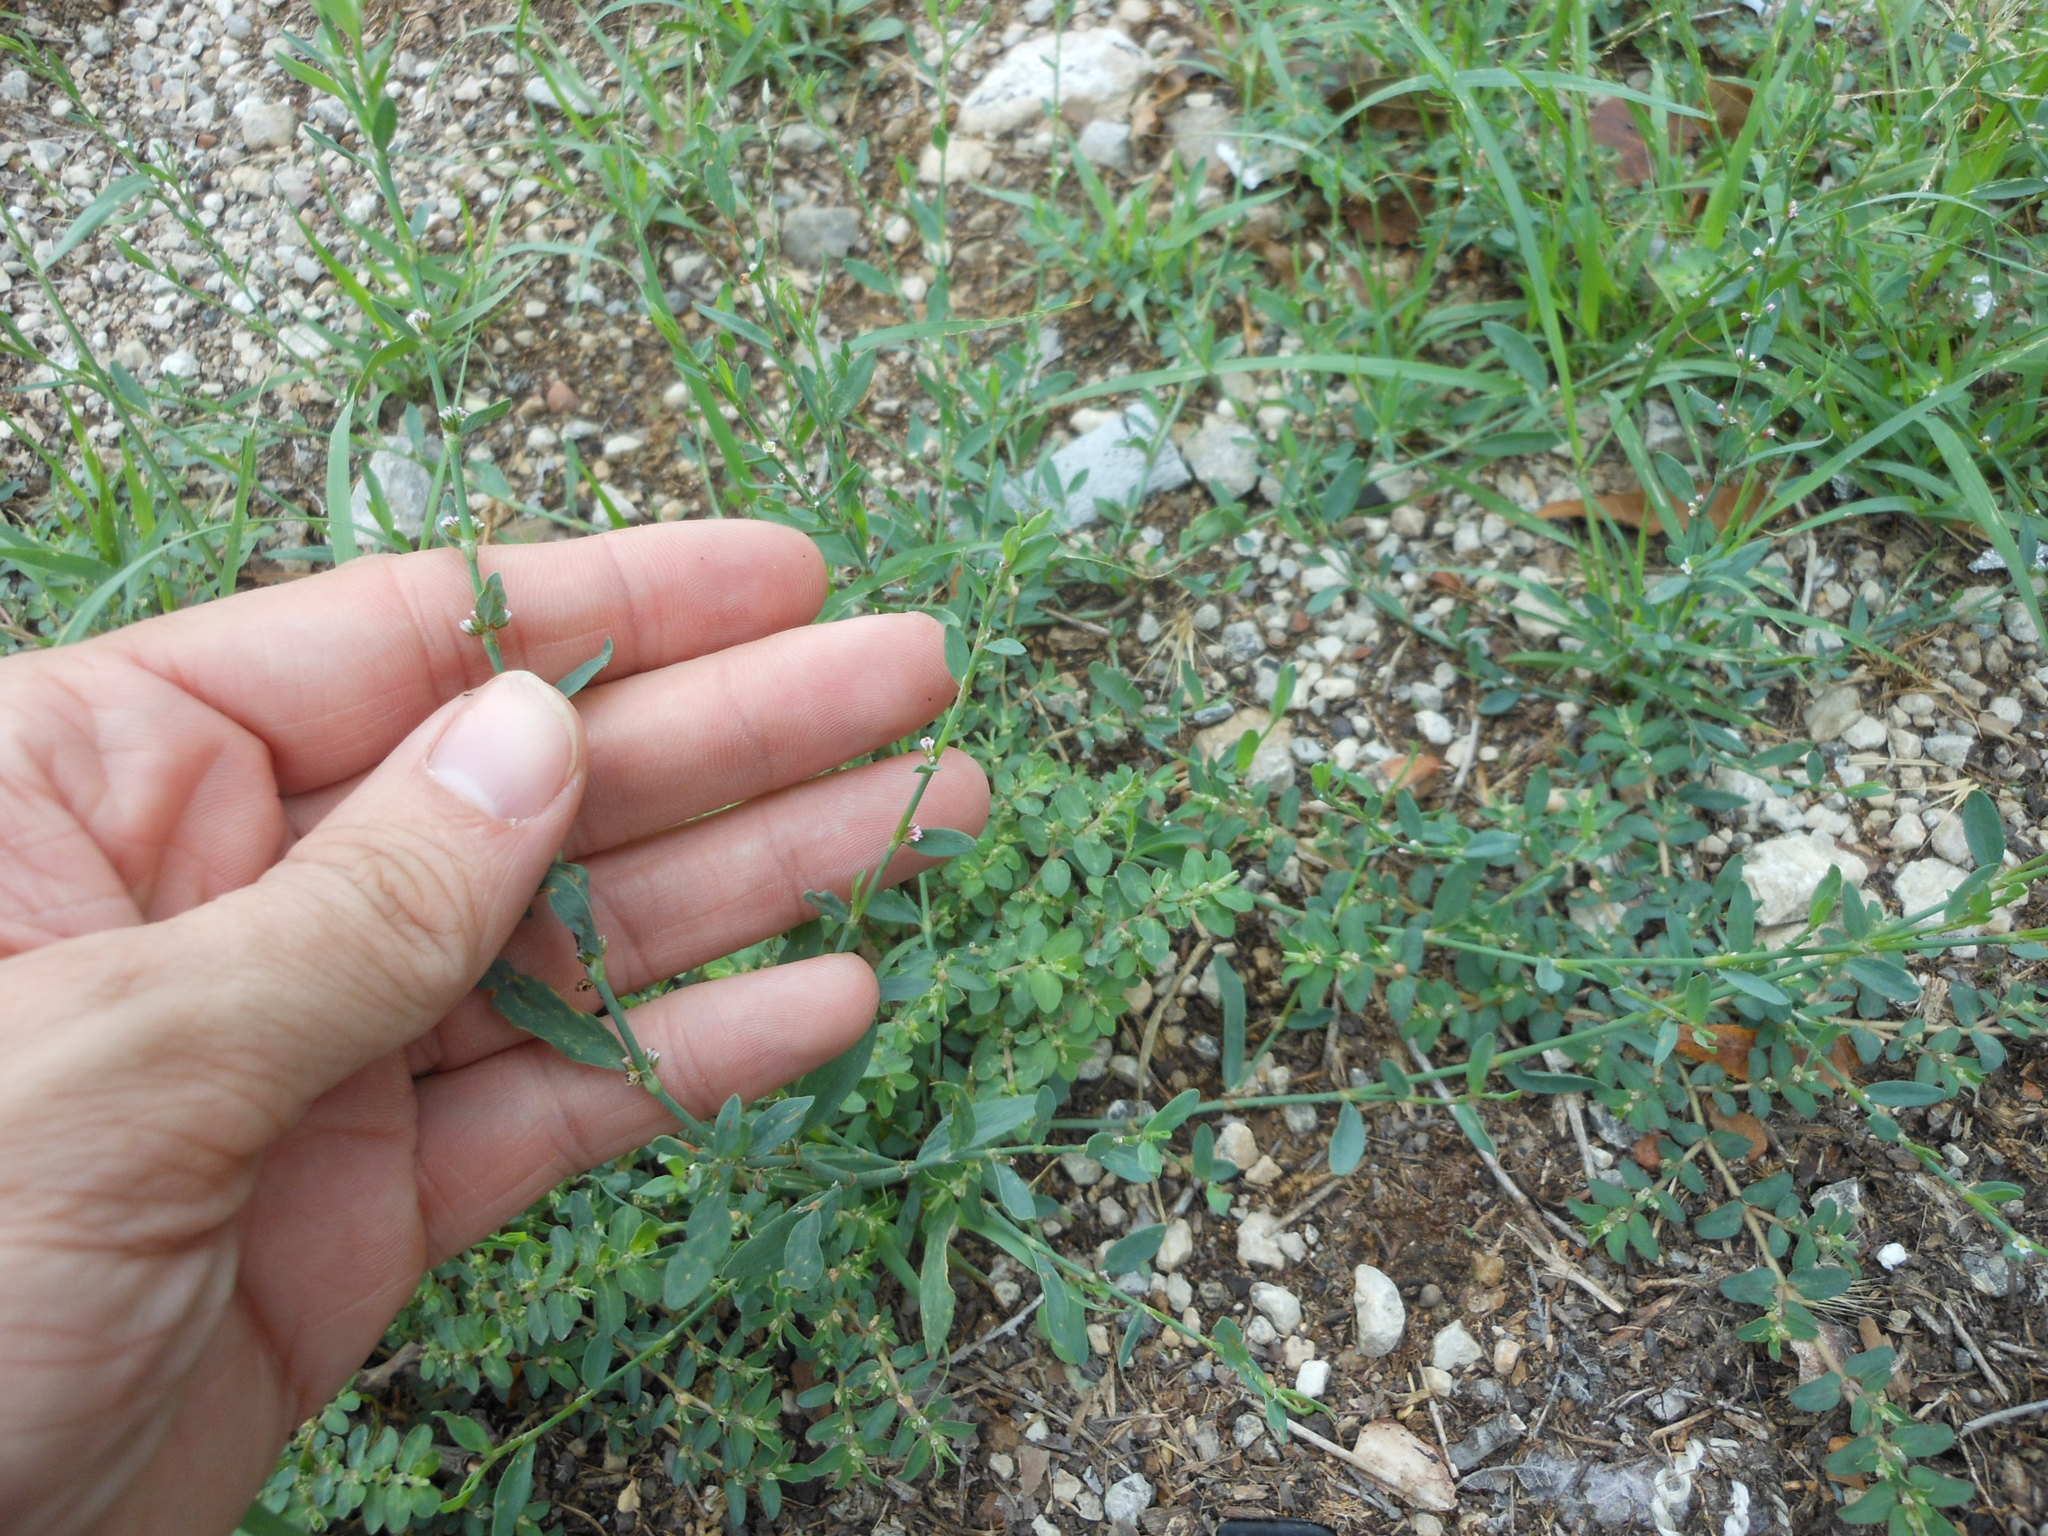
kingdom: Plantae
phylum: Tracheophyta
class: Magnoliopsida
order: Caryophyllales
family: Polygonaceae
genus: Polygonum
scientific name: Polygonum aviculare
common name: Prostrate knotweed
